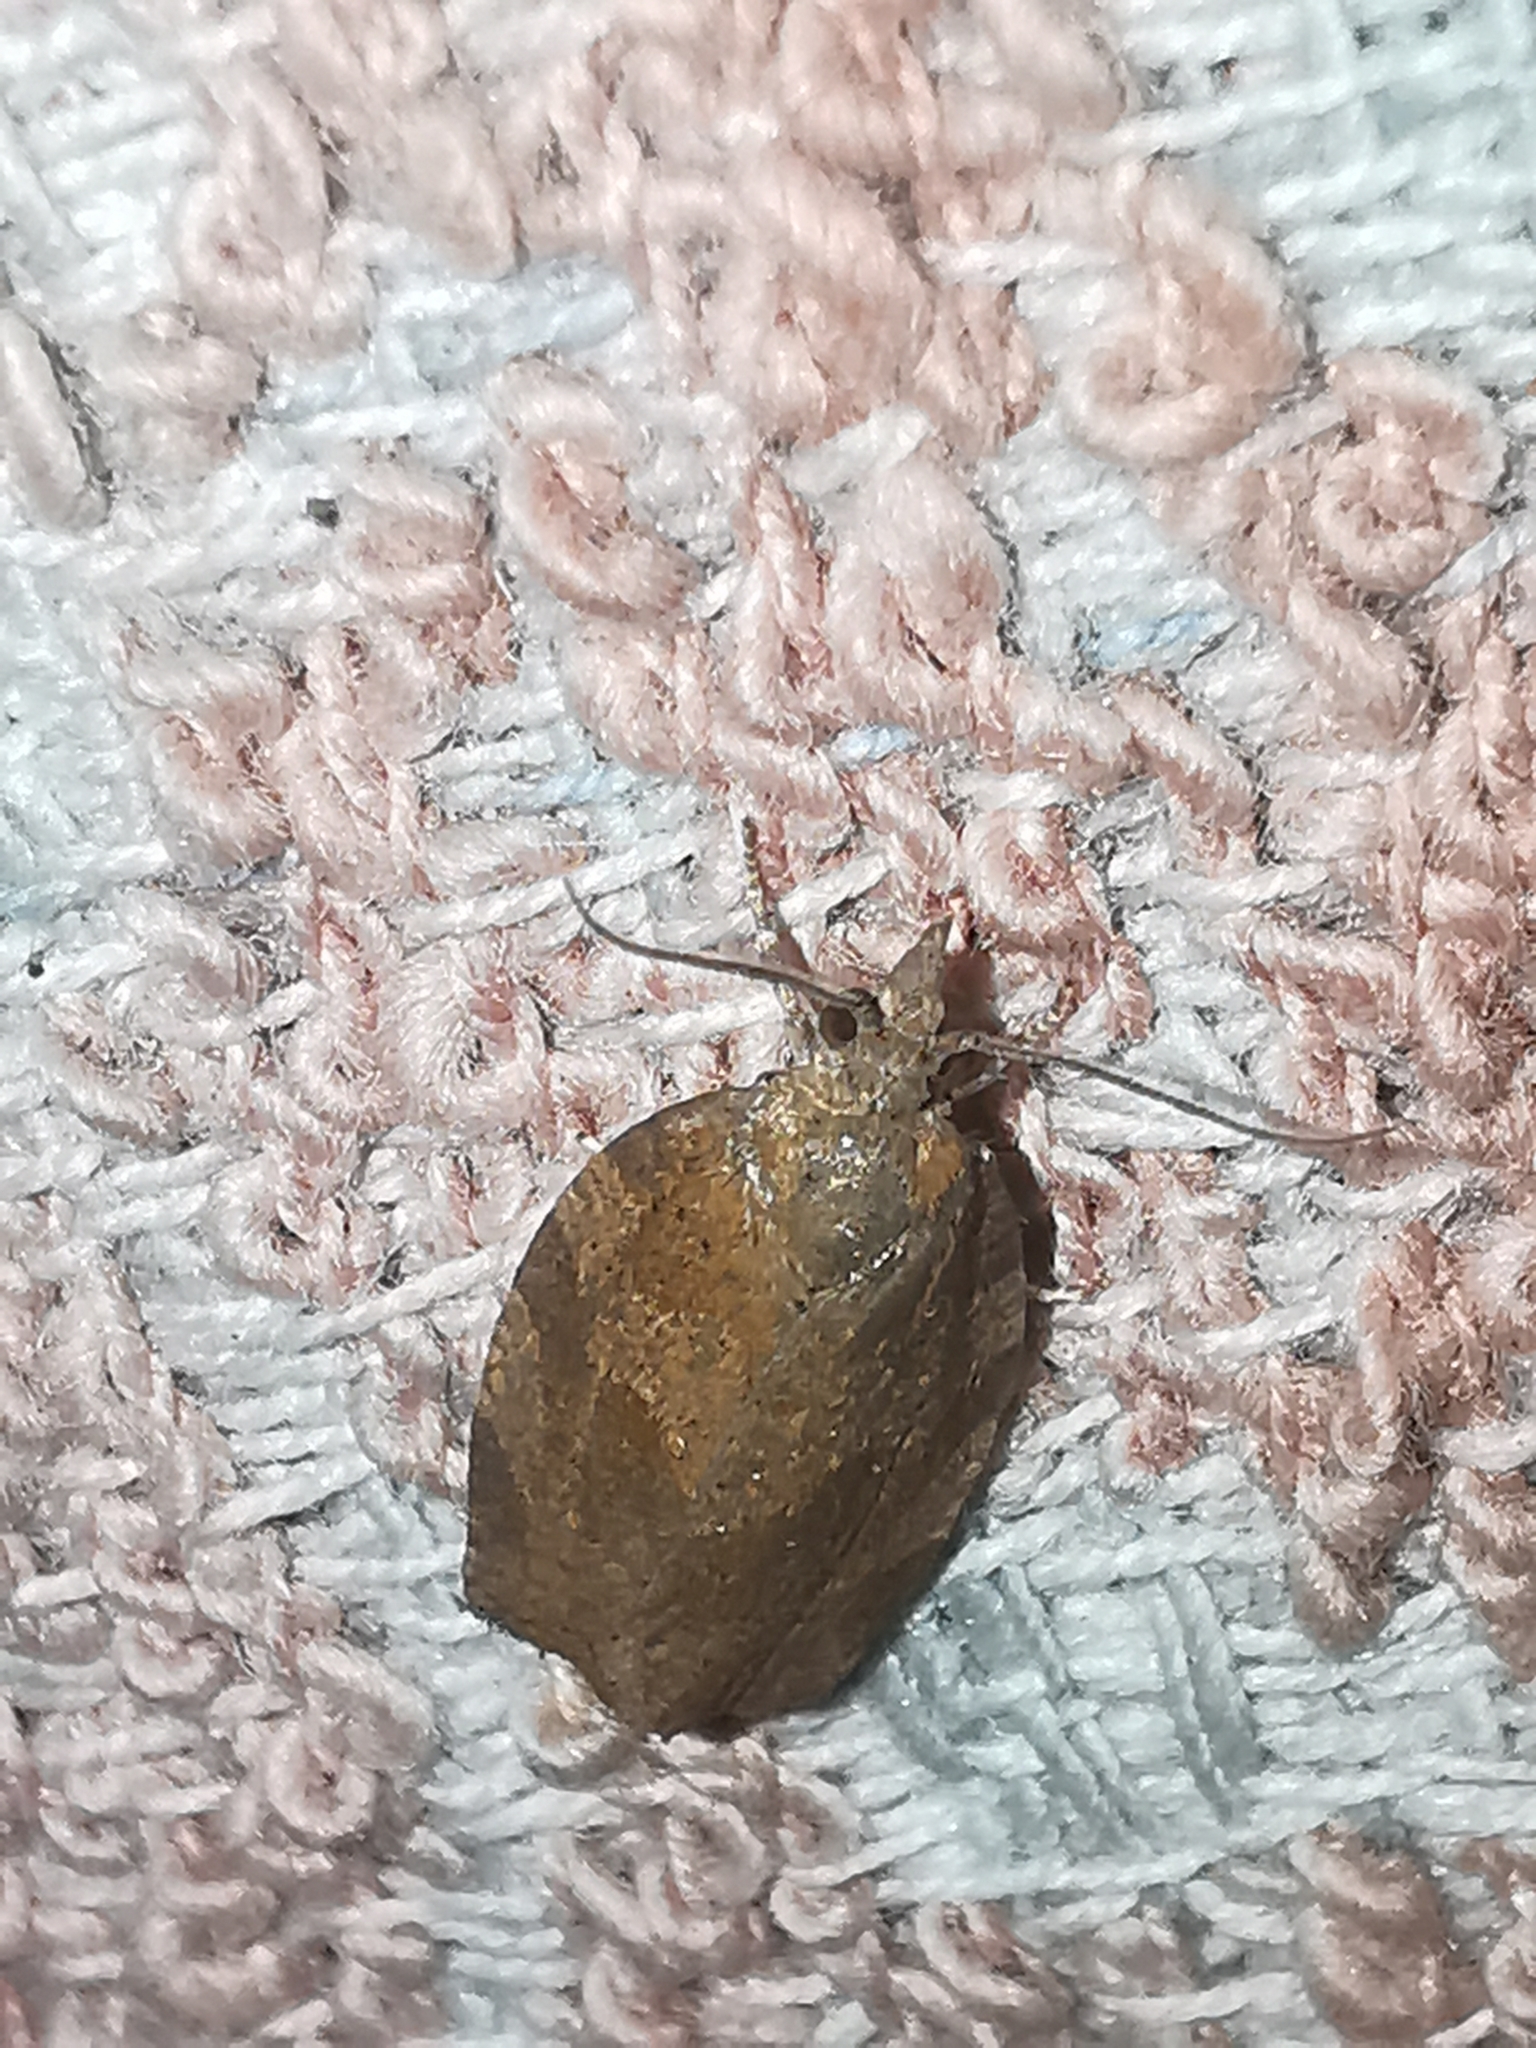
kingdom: Animalia
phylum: Arthropoda
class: Insecta
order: Lepidoptera
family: Tortricidae
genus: Pandemis
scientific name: Pandemis heparana
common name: Dark fruit-tree tortrix
